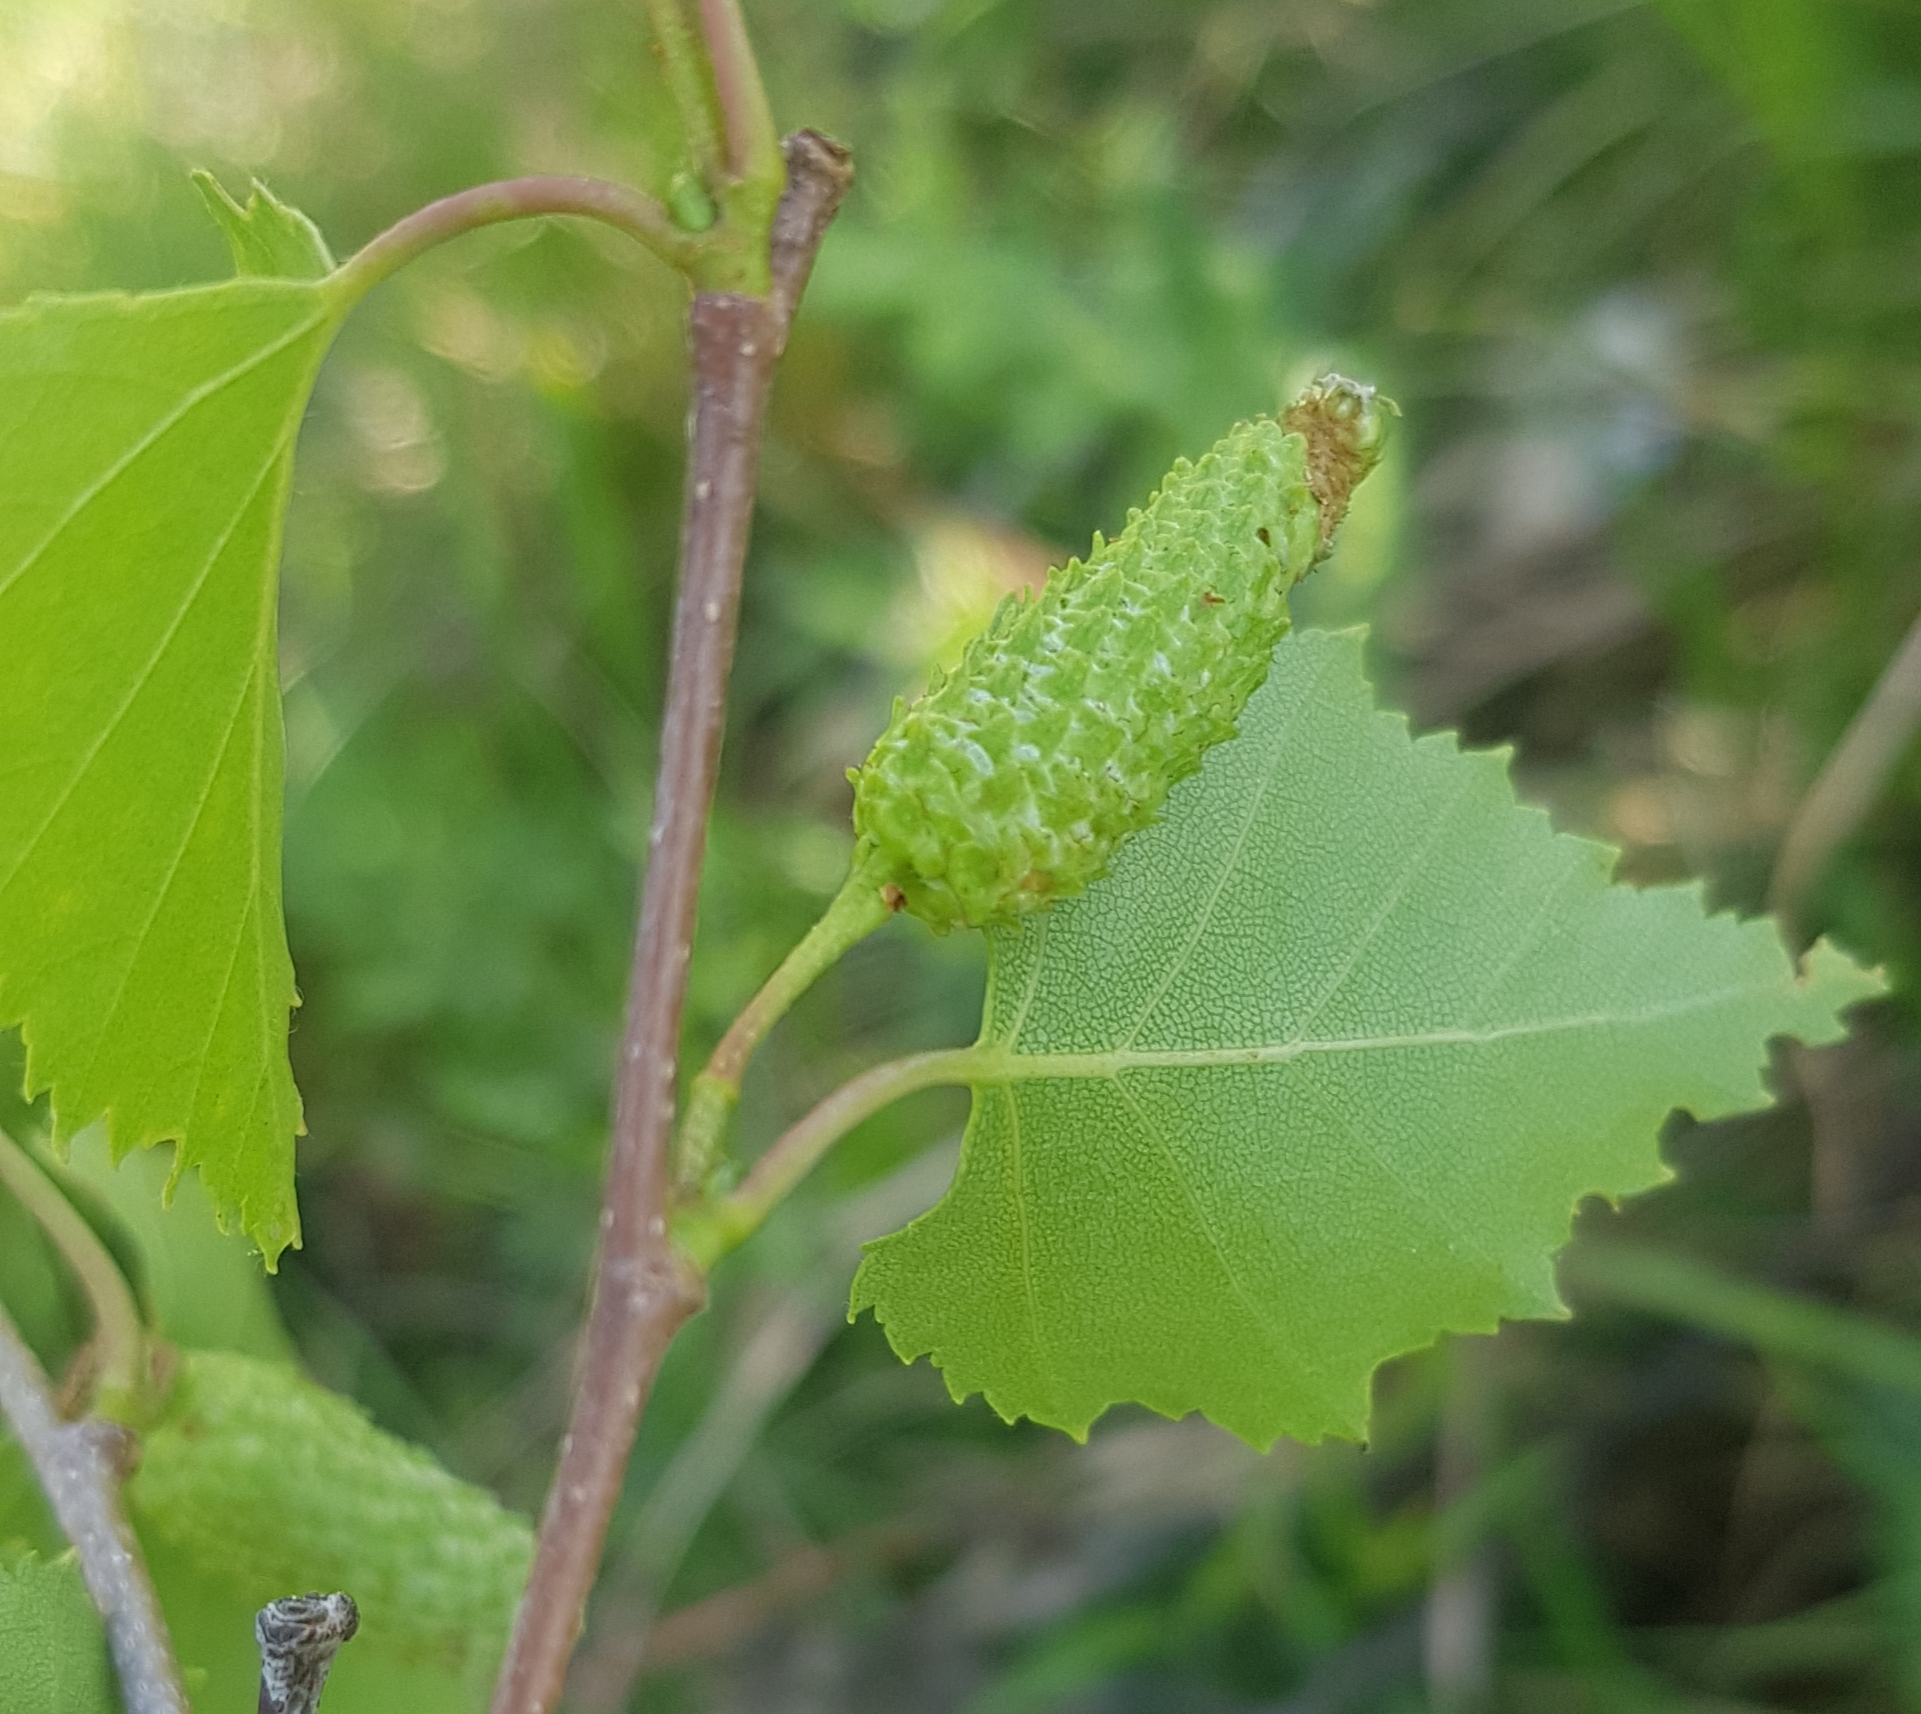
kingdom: Plantae
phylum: Tracheophyta
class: Magnoliopsida
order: Fagales
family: Betulaceae
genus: Betula
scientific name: Betula pendula
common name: Silver birch
